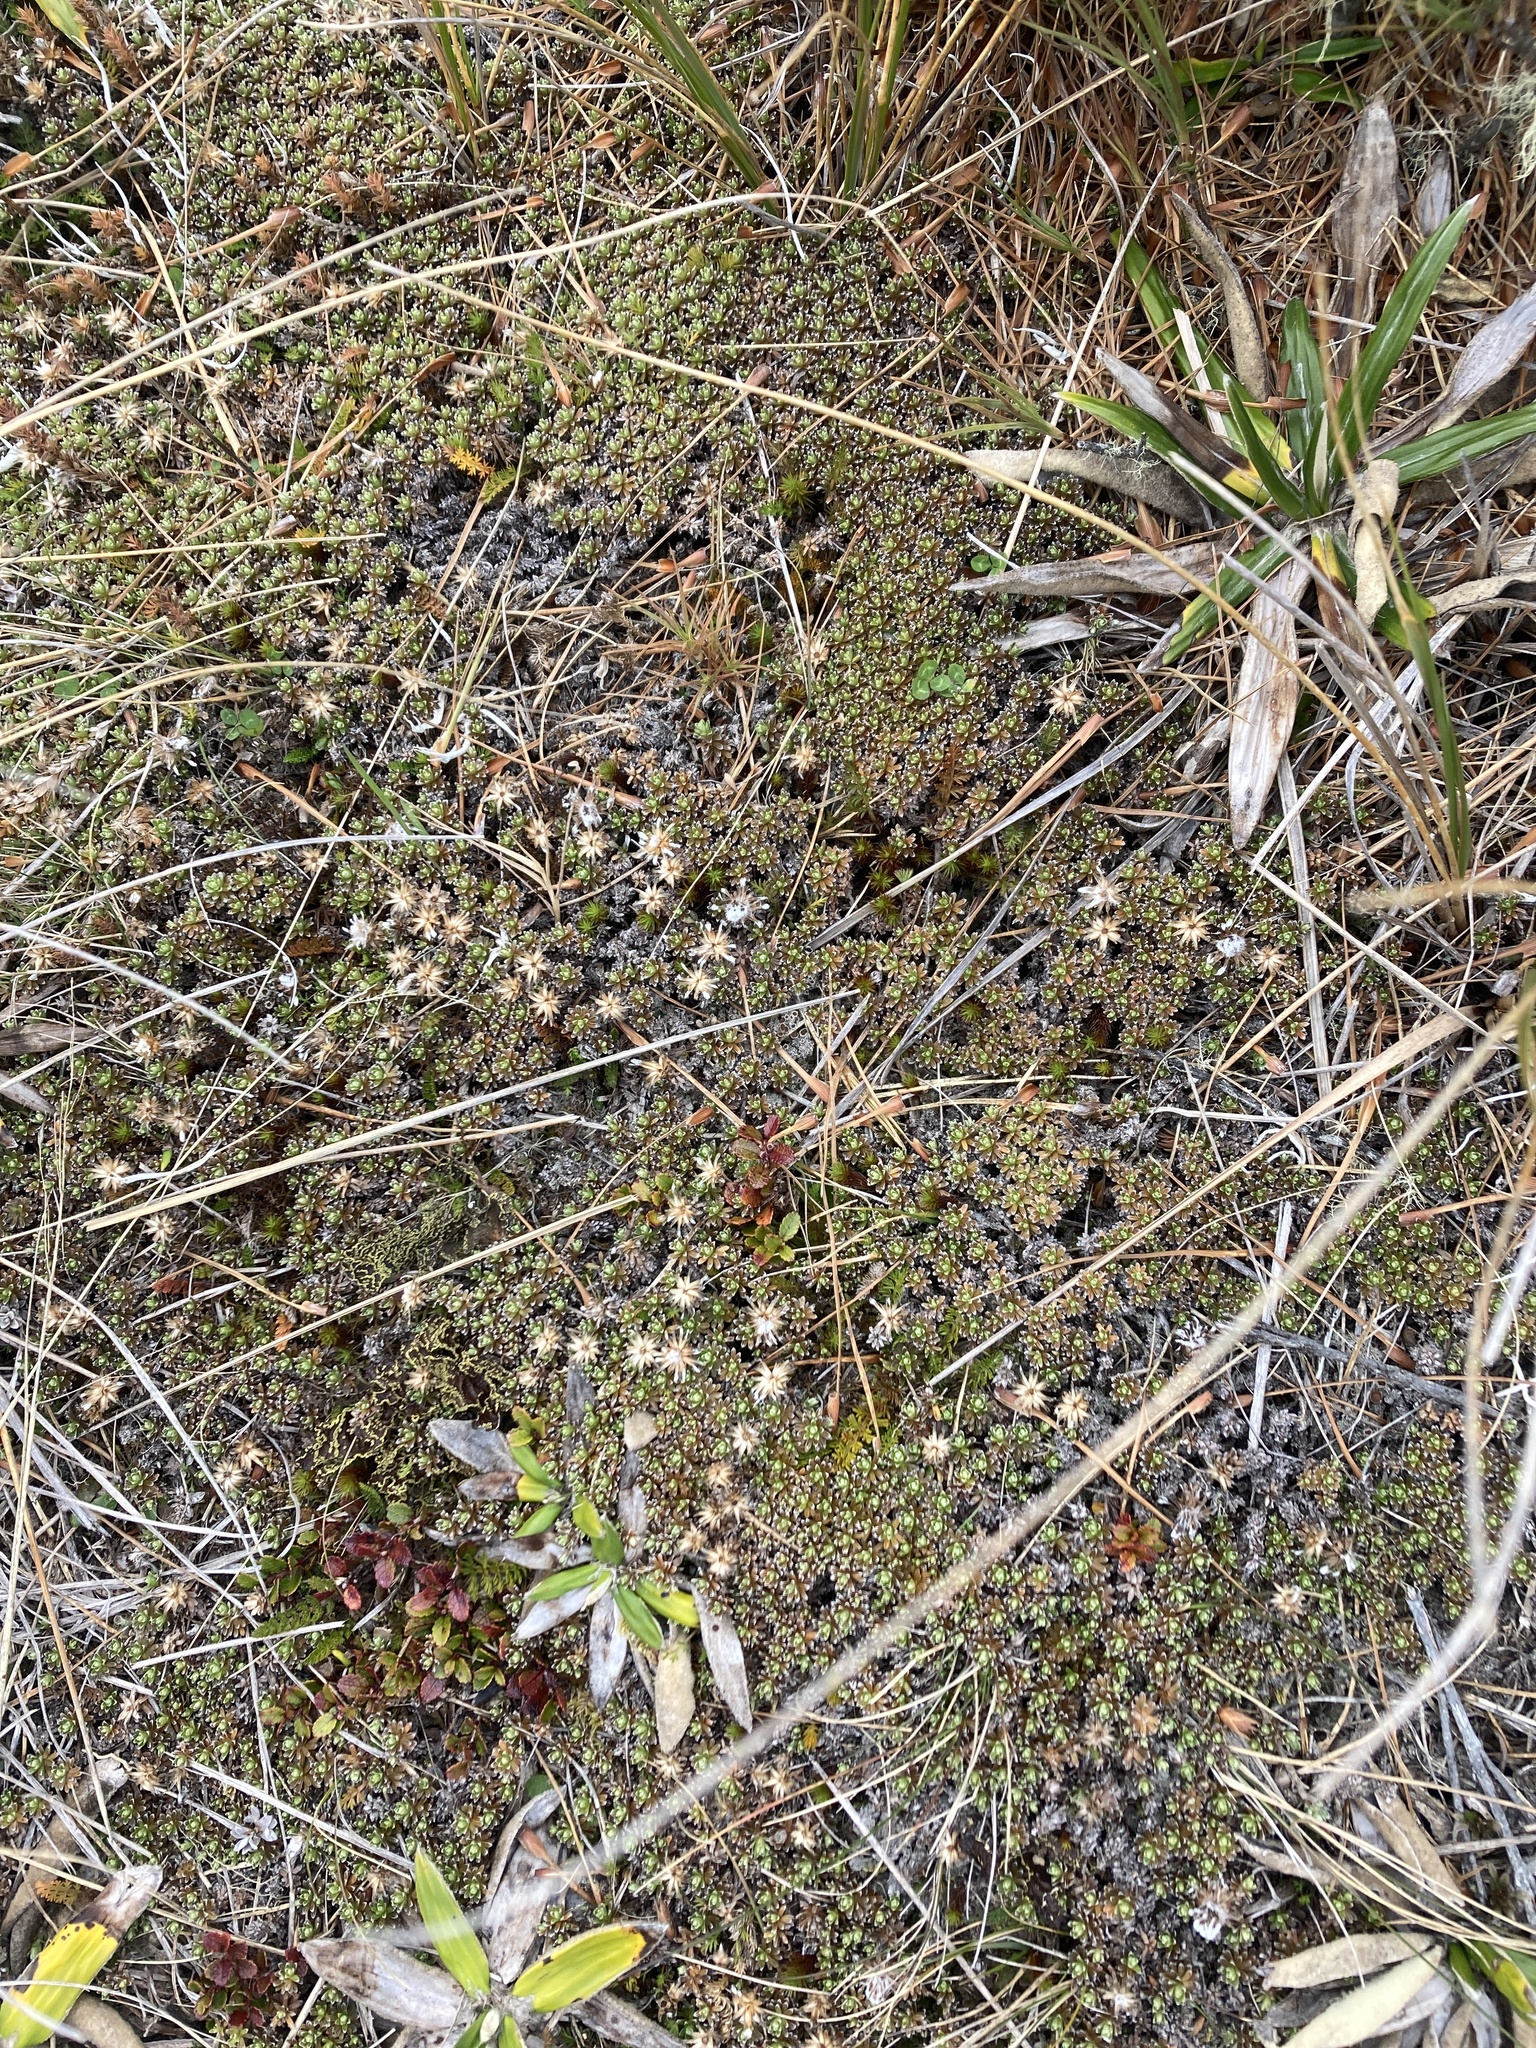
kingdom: Plantae
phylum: Tracheophyta
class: Magnoliopsida
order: Asterales
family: Asteraceae
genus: Raoulia
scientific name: Raoulia subsericea
